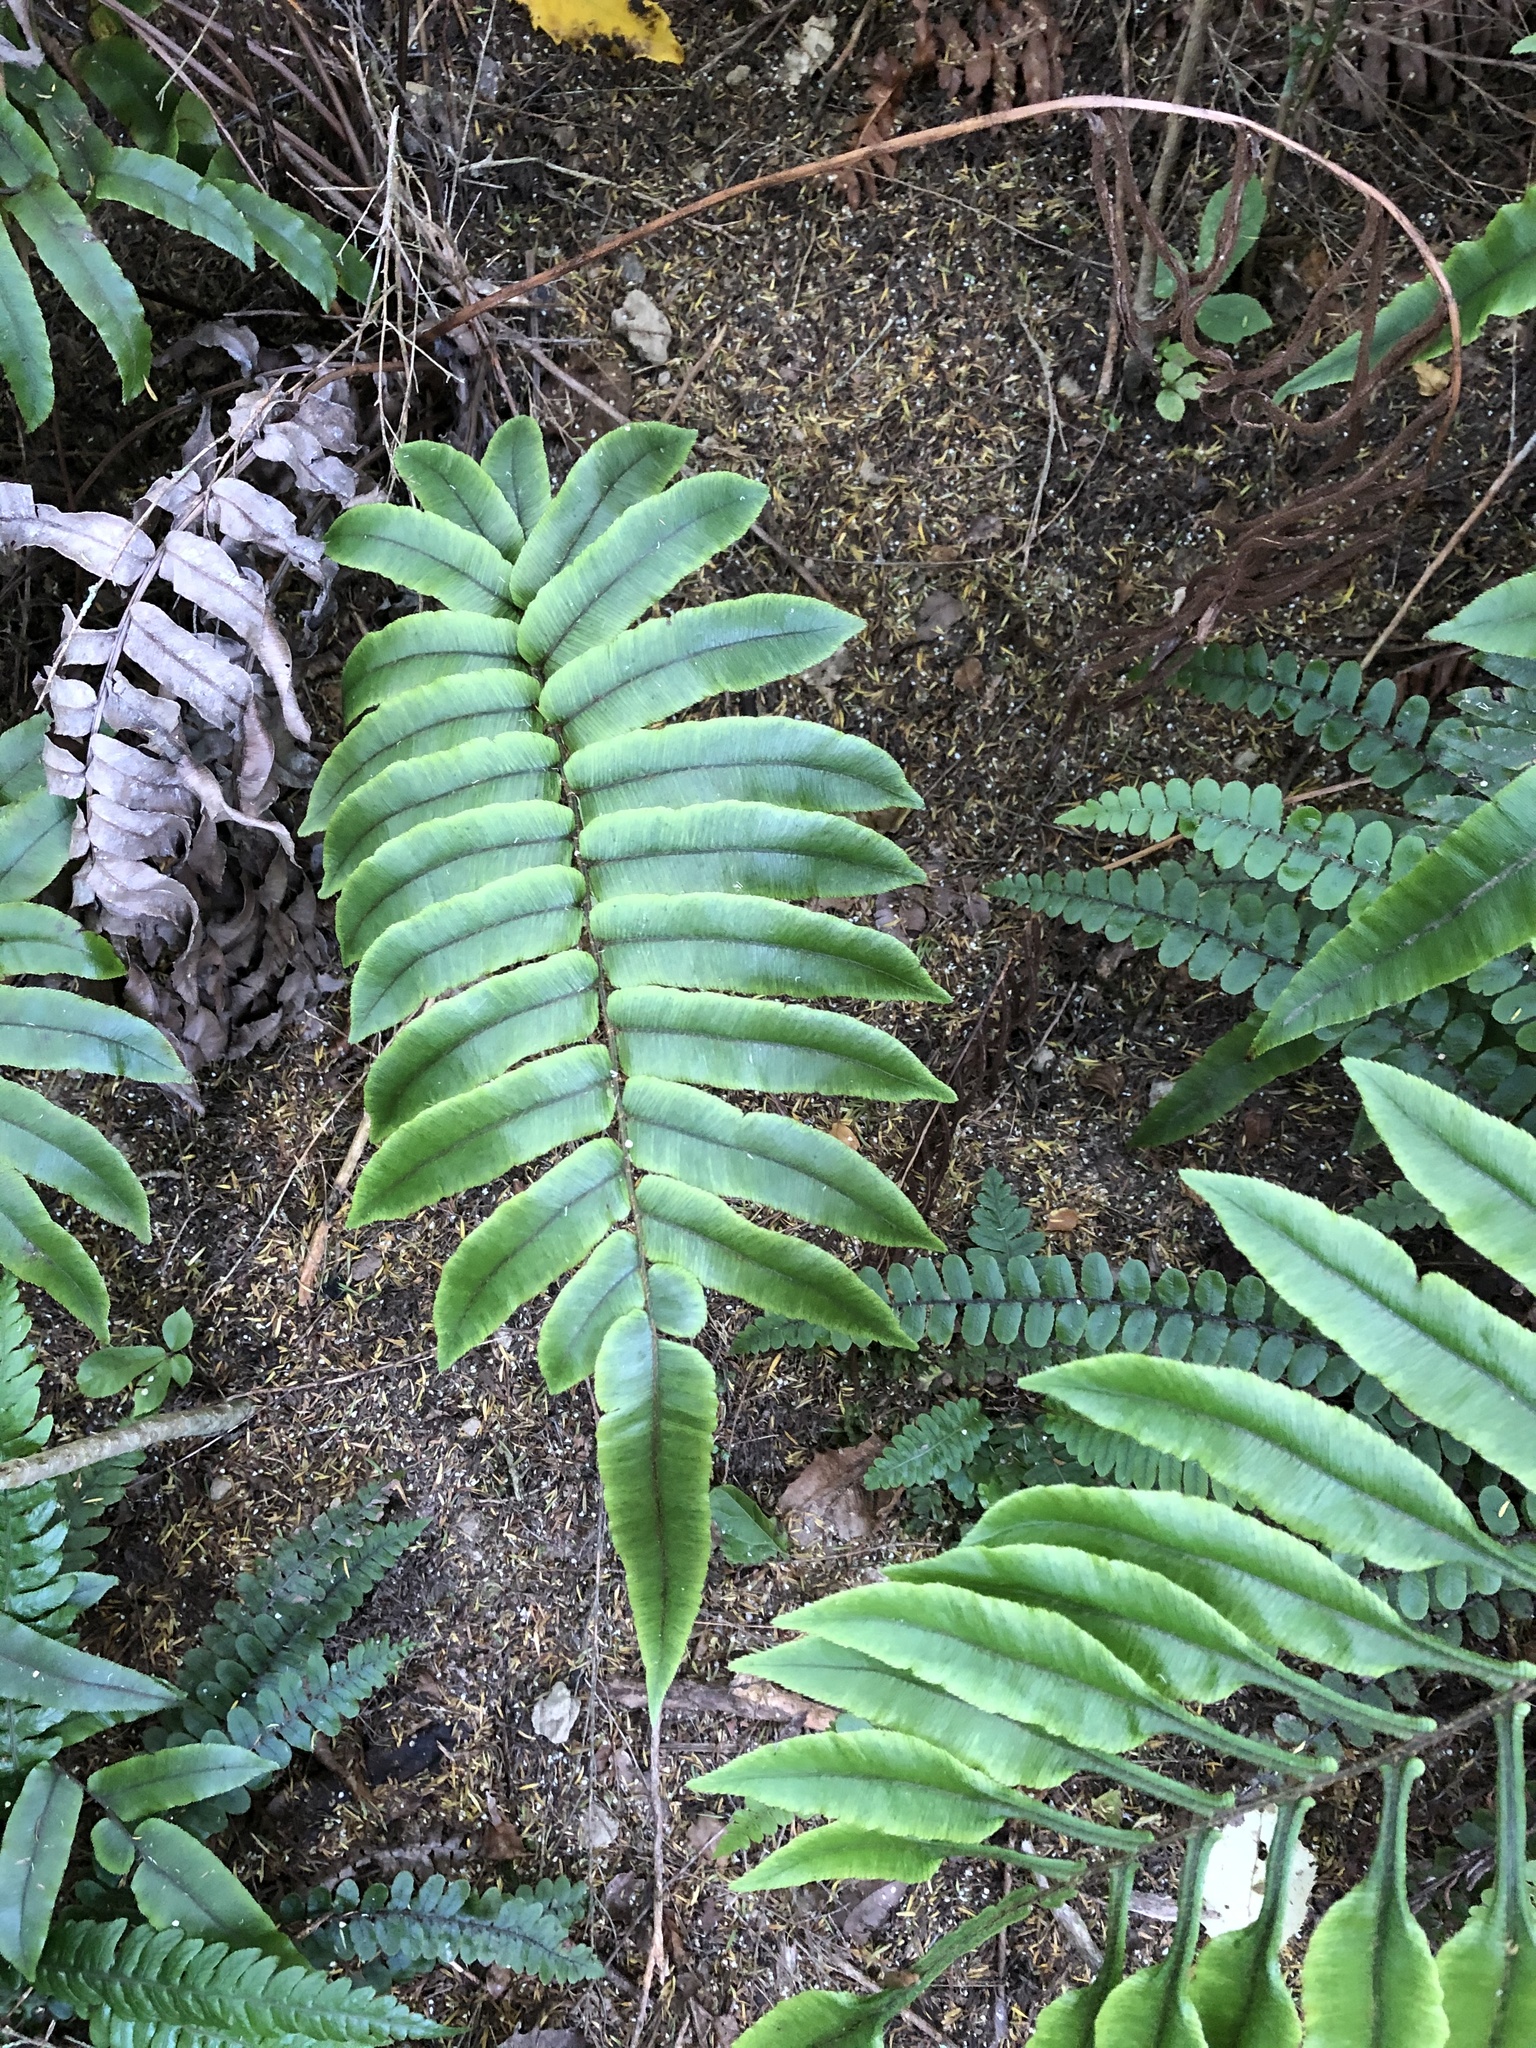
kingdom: Plantae
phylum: Tracheophyta
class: Polypodiopsida
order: Polypodiales
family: Blechnaceae
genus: Parablechnum
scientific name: Parablechnum procerum
